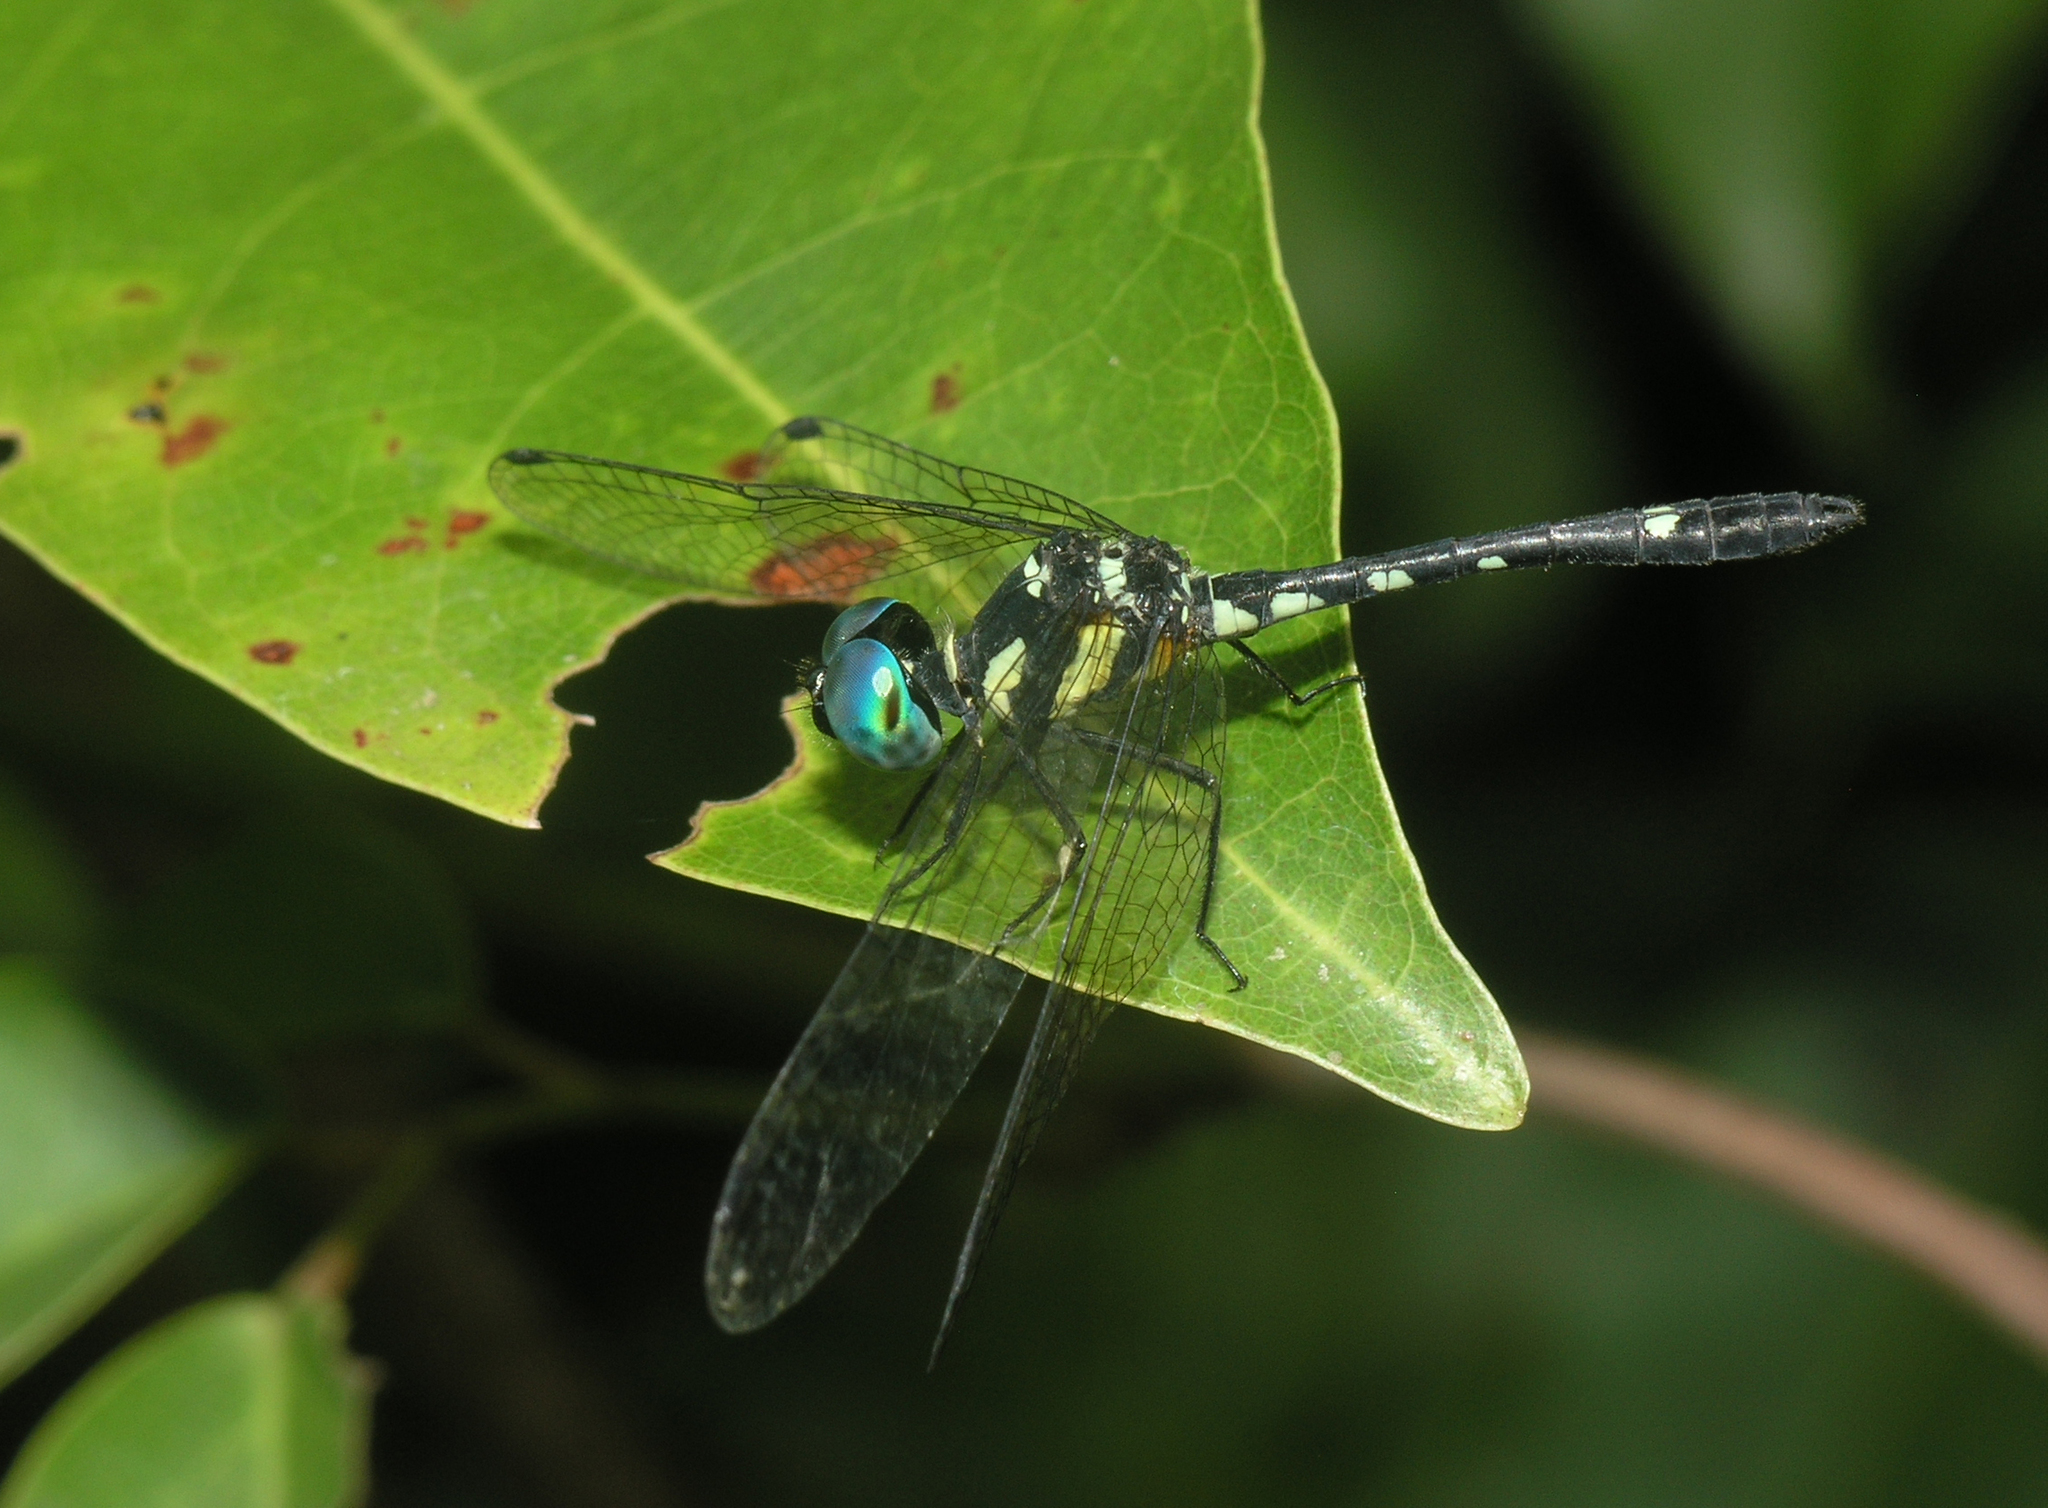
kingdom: Animalia
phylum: Arthropoda
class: Insecta
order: Odonata
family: Libellulidae
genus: Tetrathemis
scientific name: Tetrathemis platyptera
